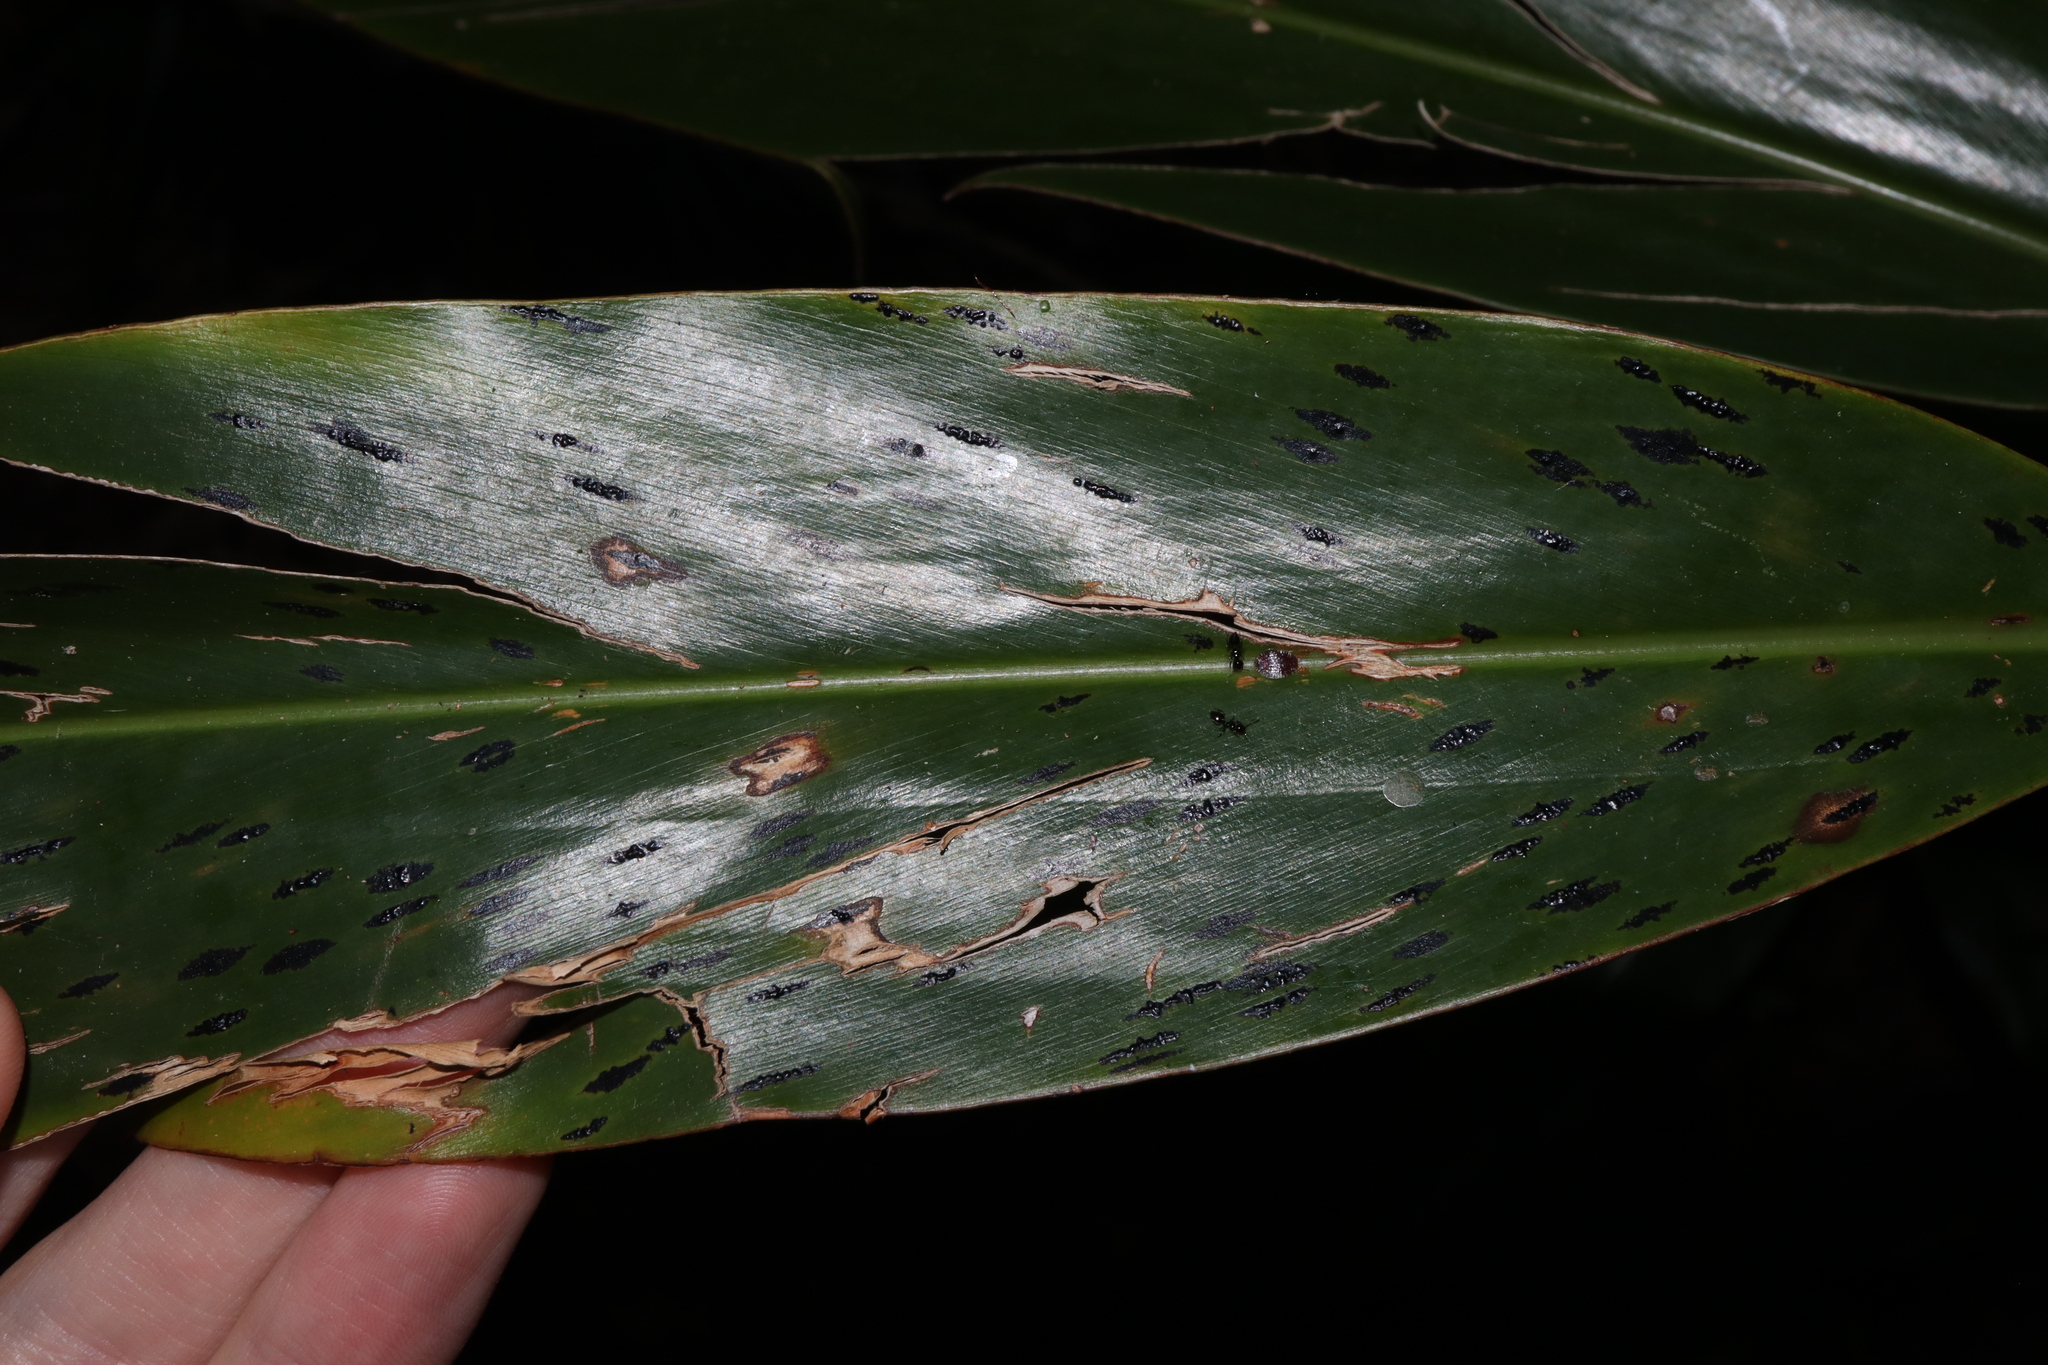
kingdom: Fungi
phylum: Ascomycota
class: Sordariomycetes
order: Phyllachorales
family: Phyllachoraceae
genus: Phyllachora
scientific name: Phyllachora alpiniae
